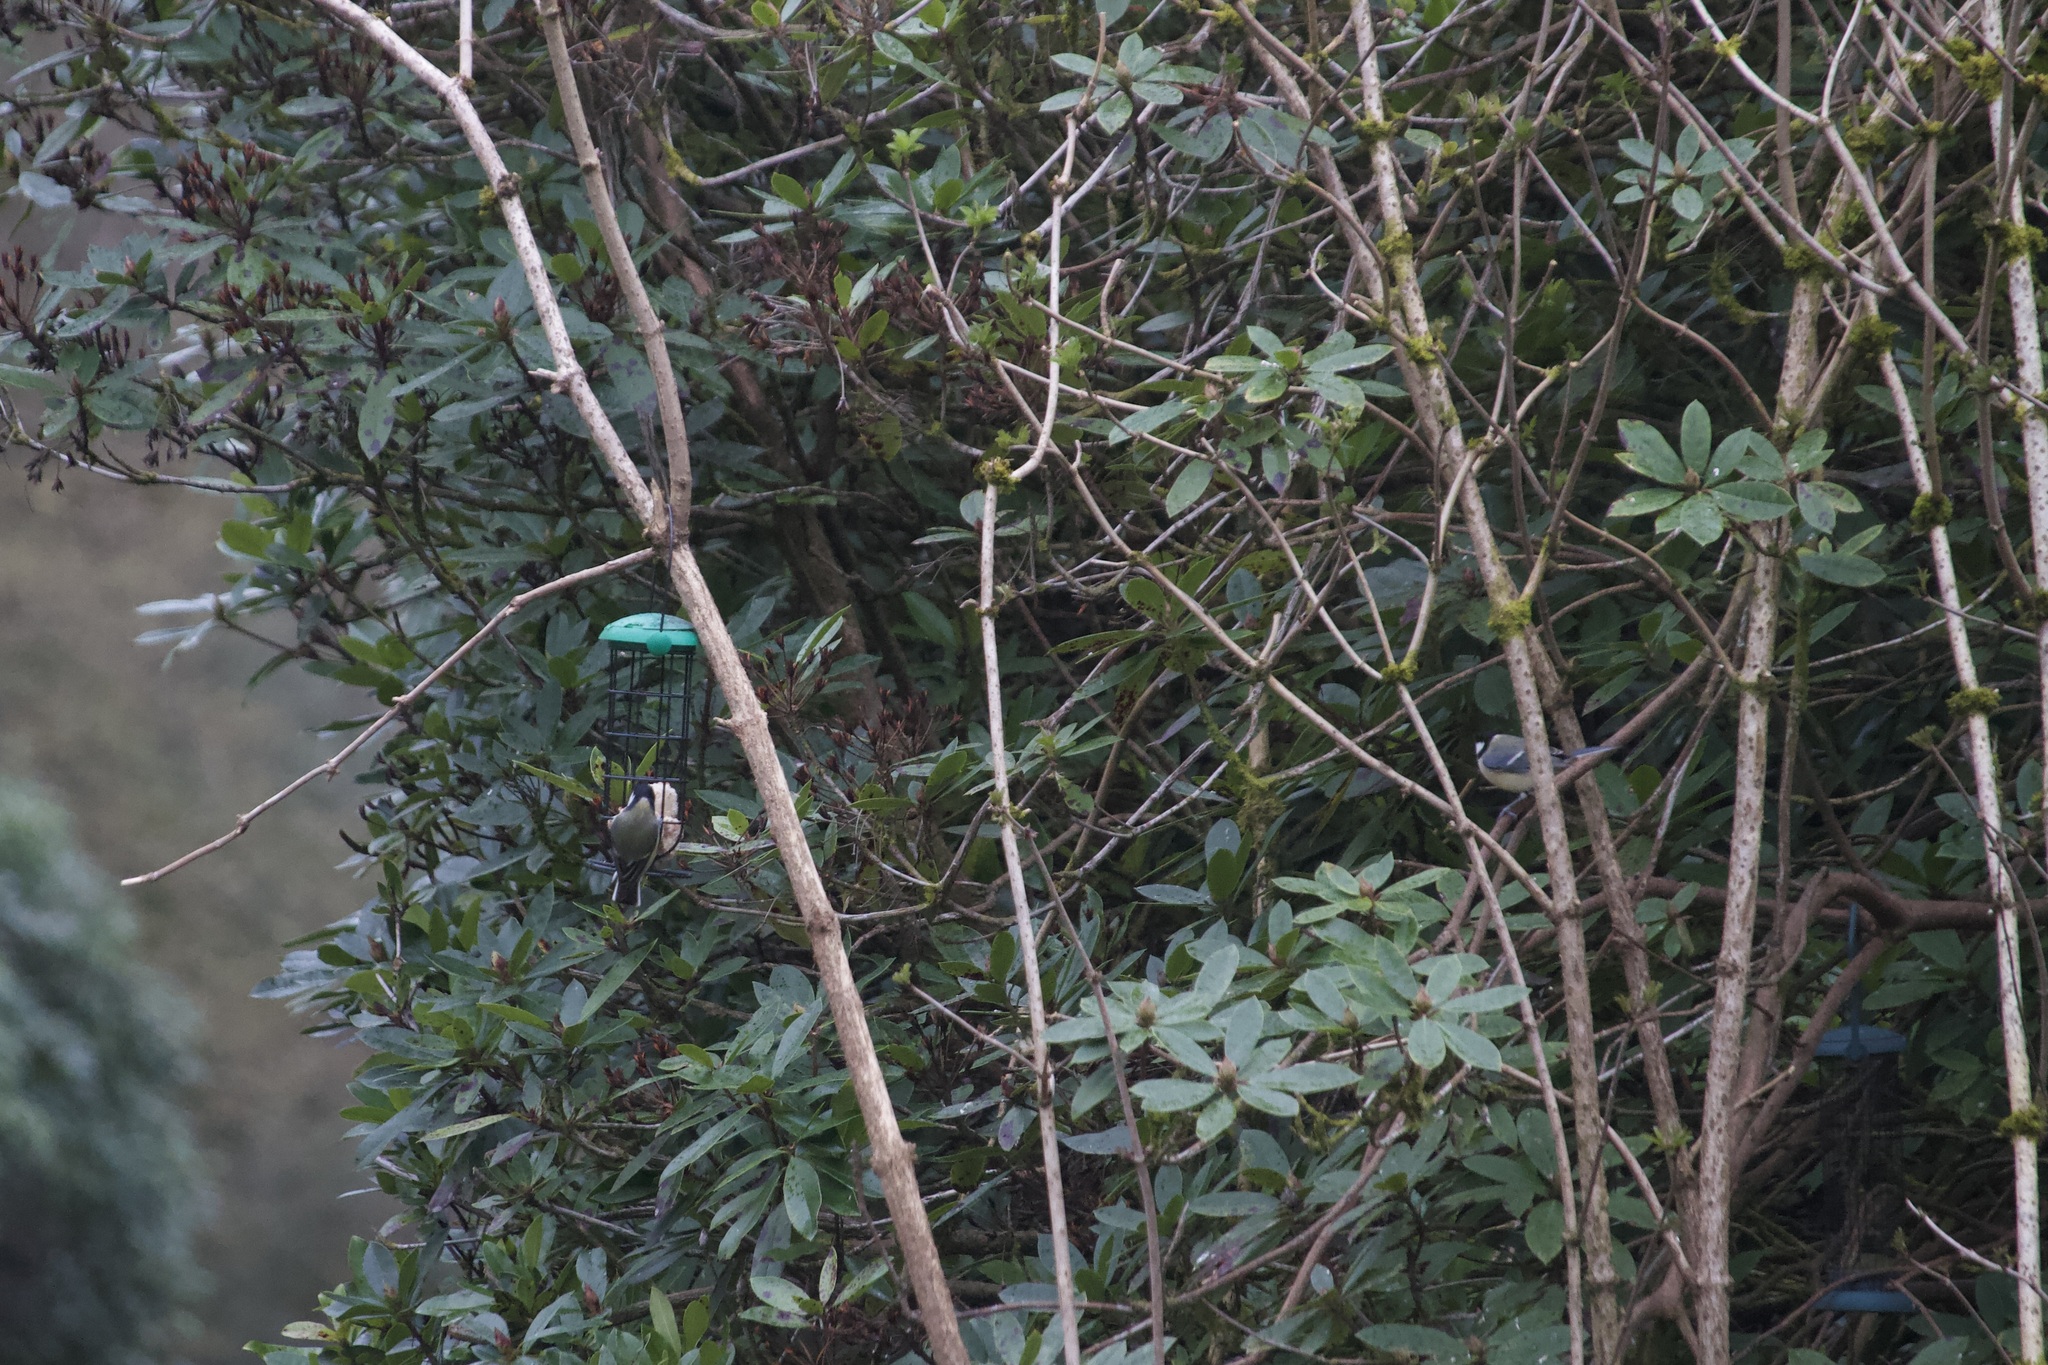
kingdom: Animalia
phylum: Chordata
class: Aves
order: Passeriformes
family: Paridae
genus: Parus
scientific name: Parus major
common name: Great tit
